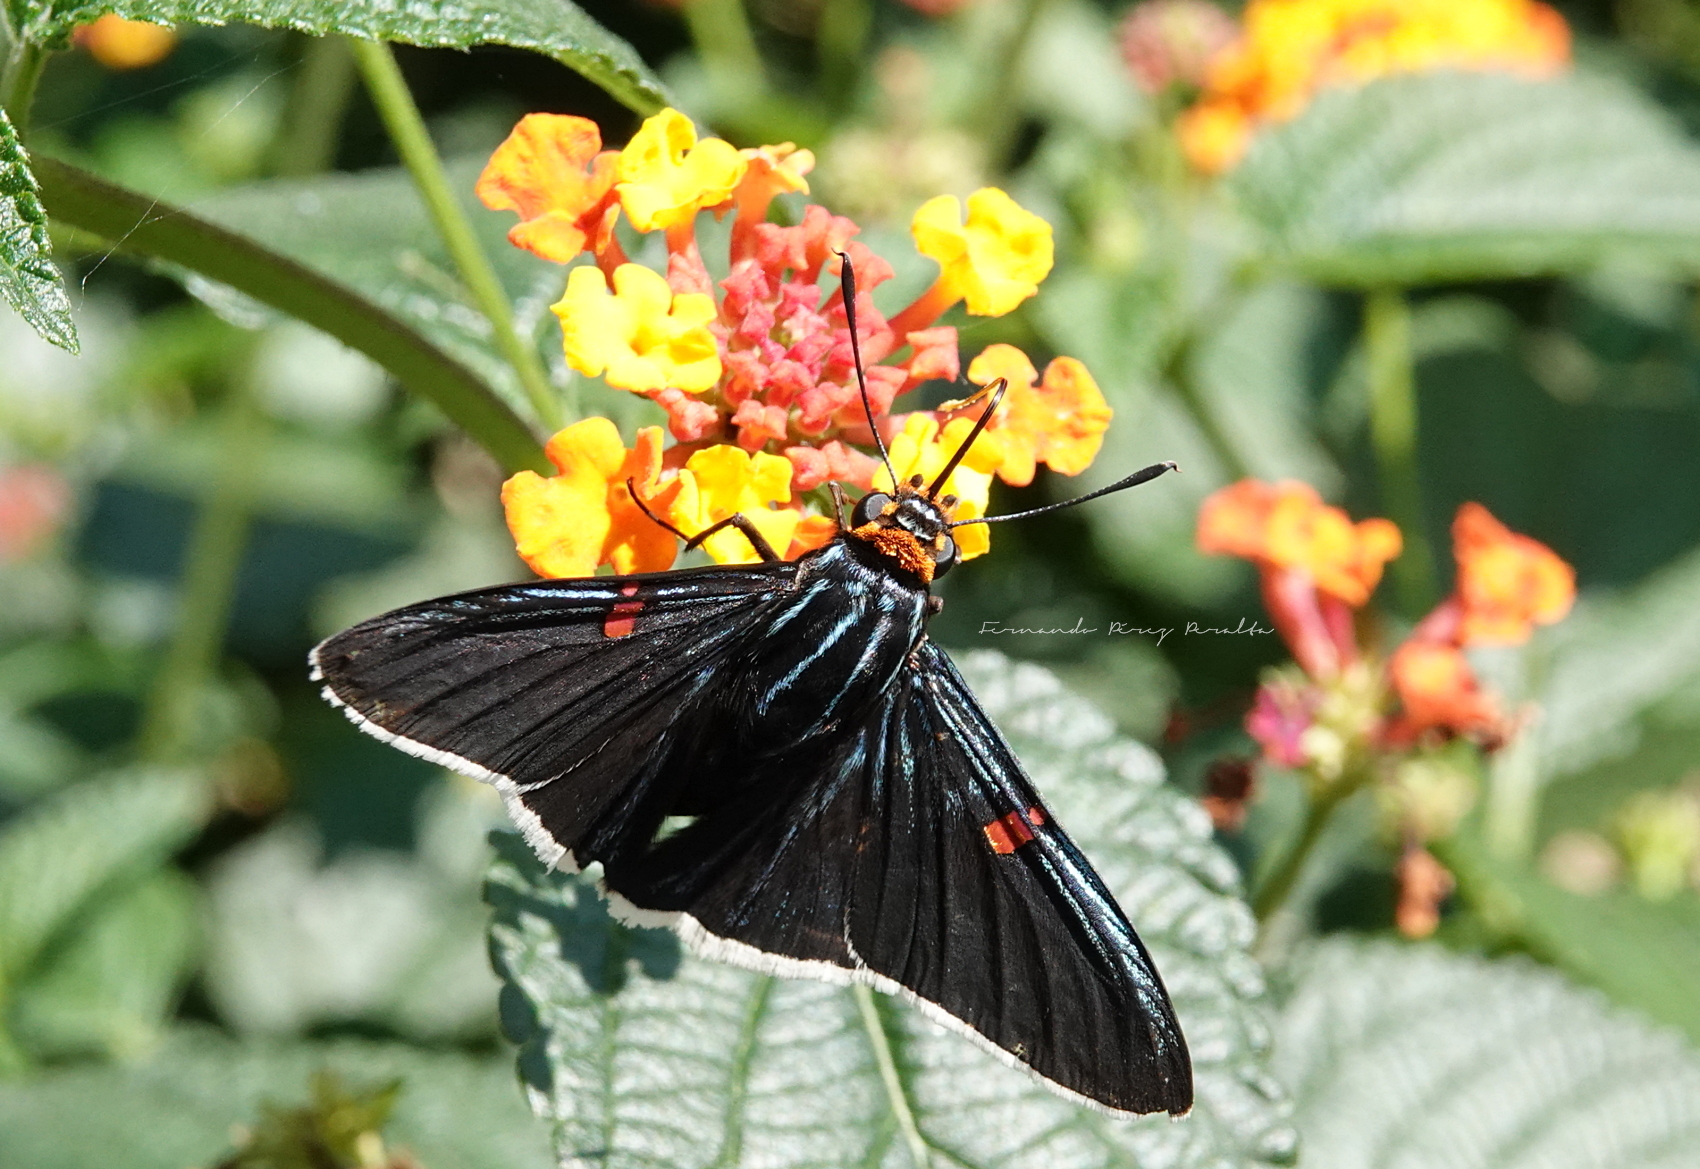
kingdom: Animalia
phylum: Arthropoda
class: Insecta
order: Lepidoptera
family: Hesperiidae
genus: Phocides
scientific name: Phocides lilea
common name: Guava skipper
